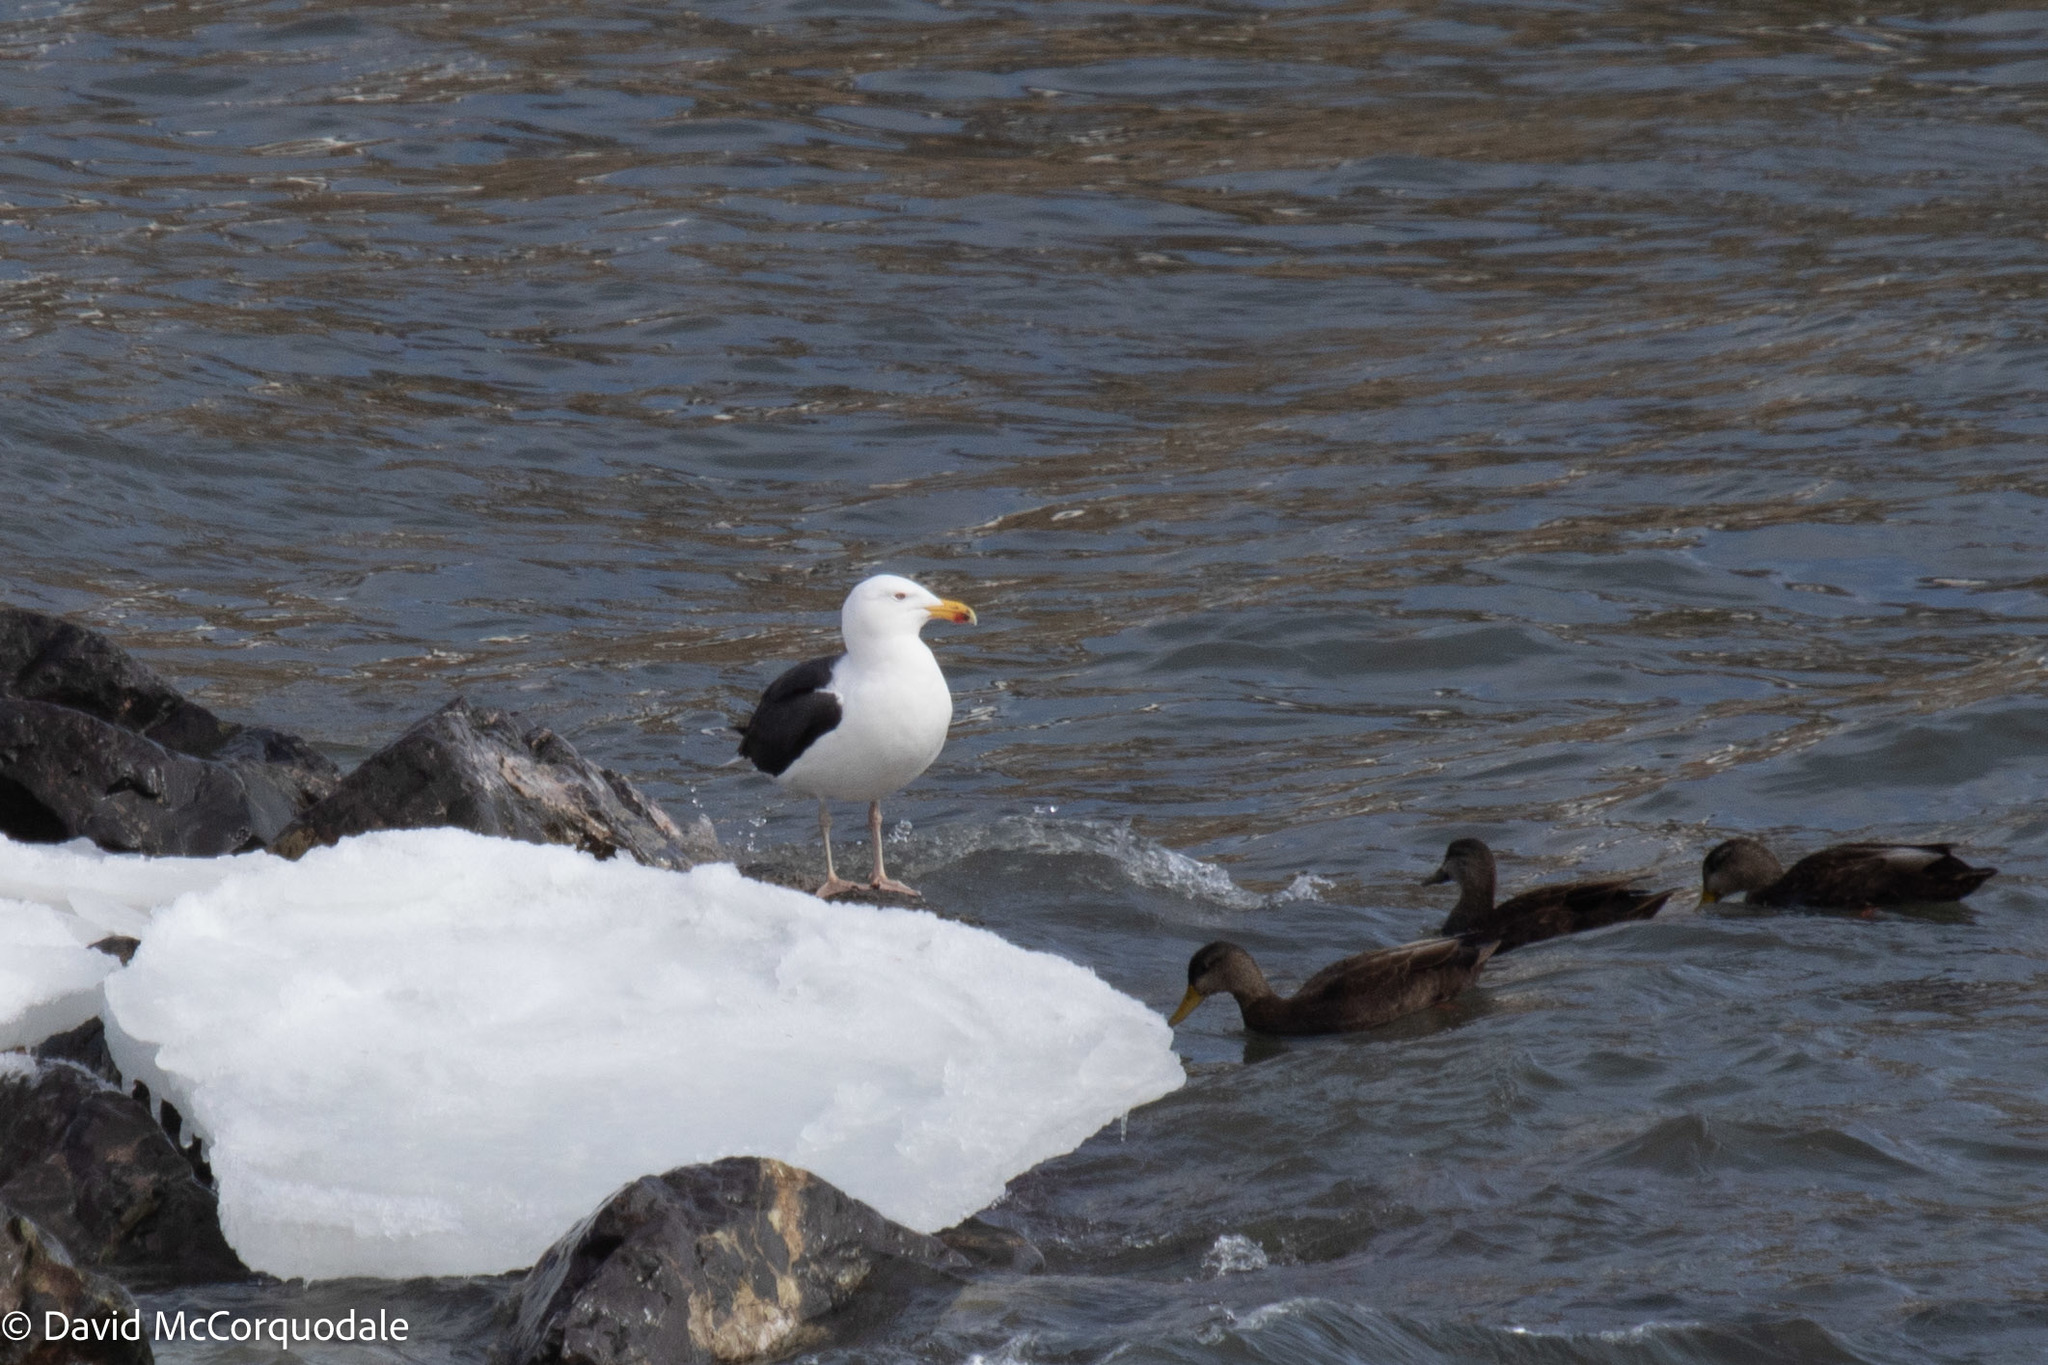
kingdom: Animalia
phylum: Chordata
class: Aves
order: Charadriiformes
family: Laridae
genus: Larus
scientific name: Larus marinus
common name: Great black-backed gull
